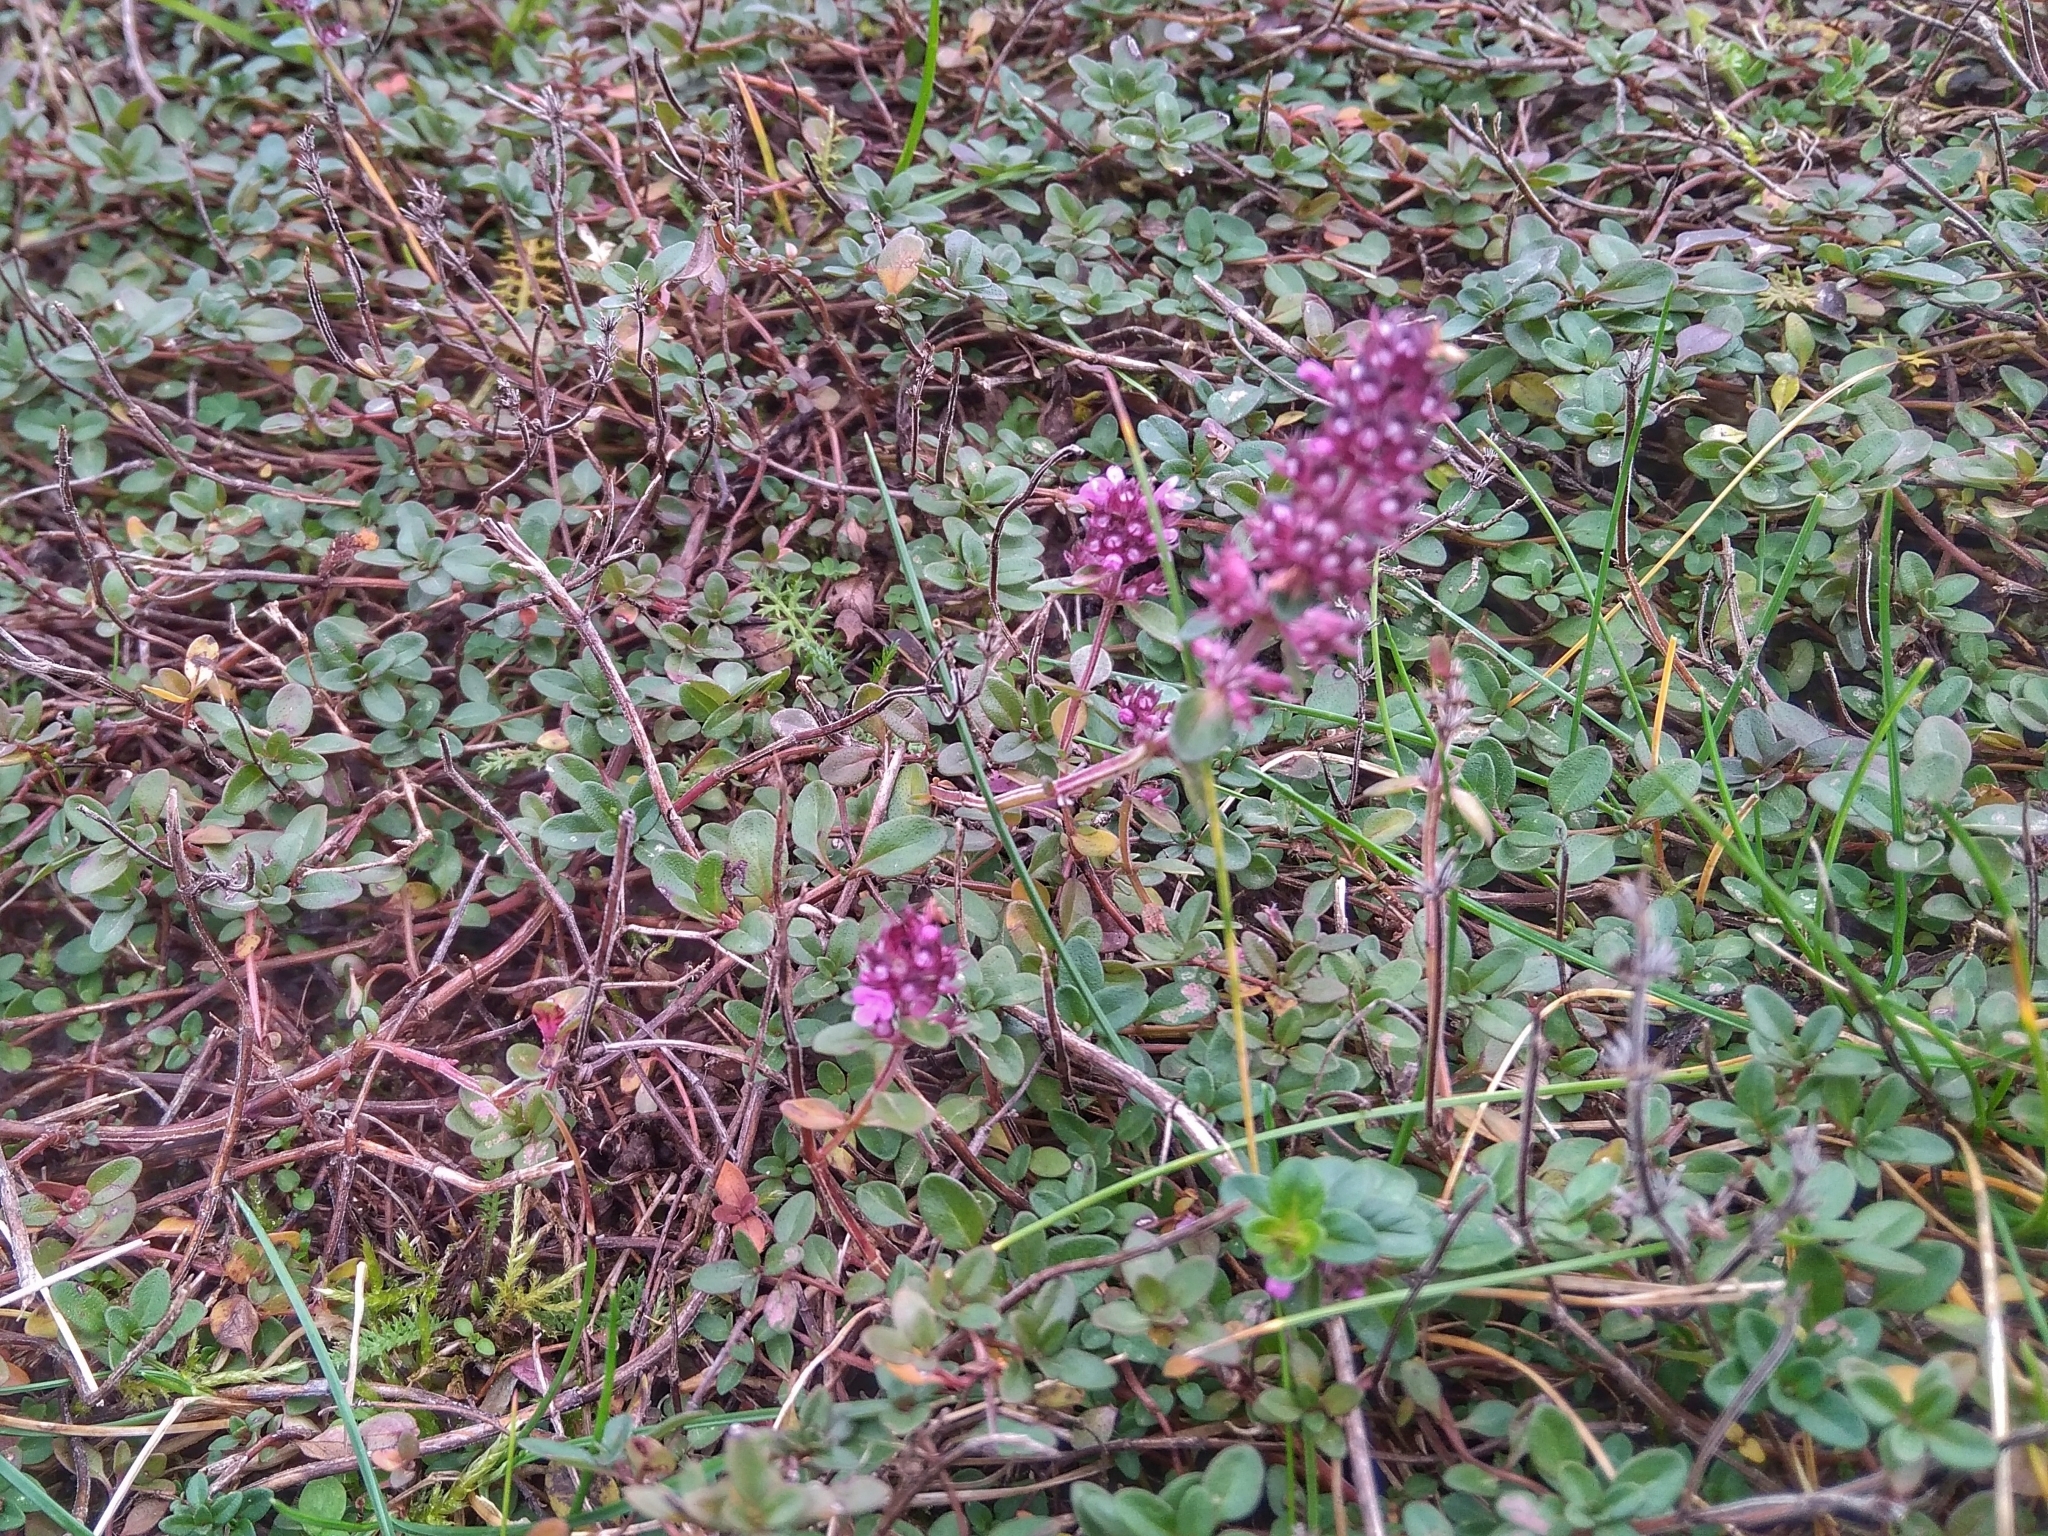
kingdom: Plantae
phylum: Tracheophyta
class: Magnoliopsida
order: Lamiales
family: Lamiaceae
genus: Thymus
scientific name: Thymus pulegioides
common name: Large thyme
